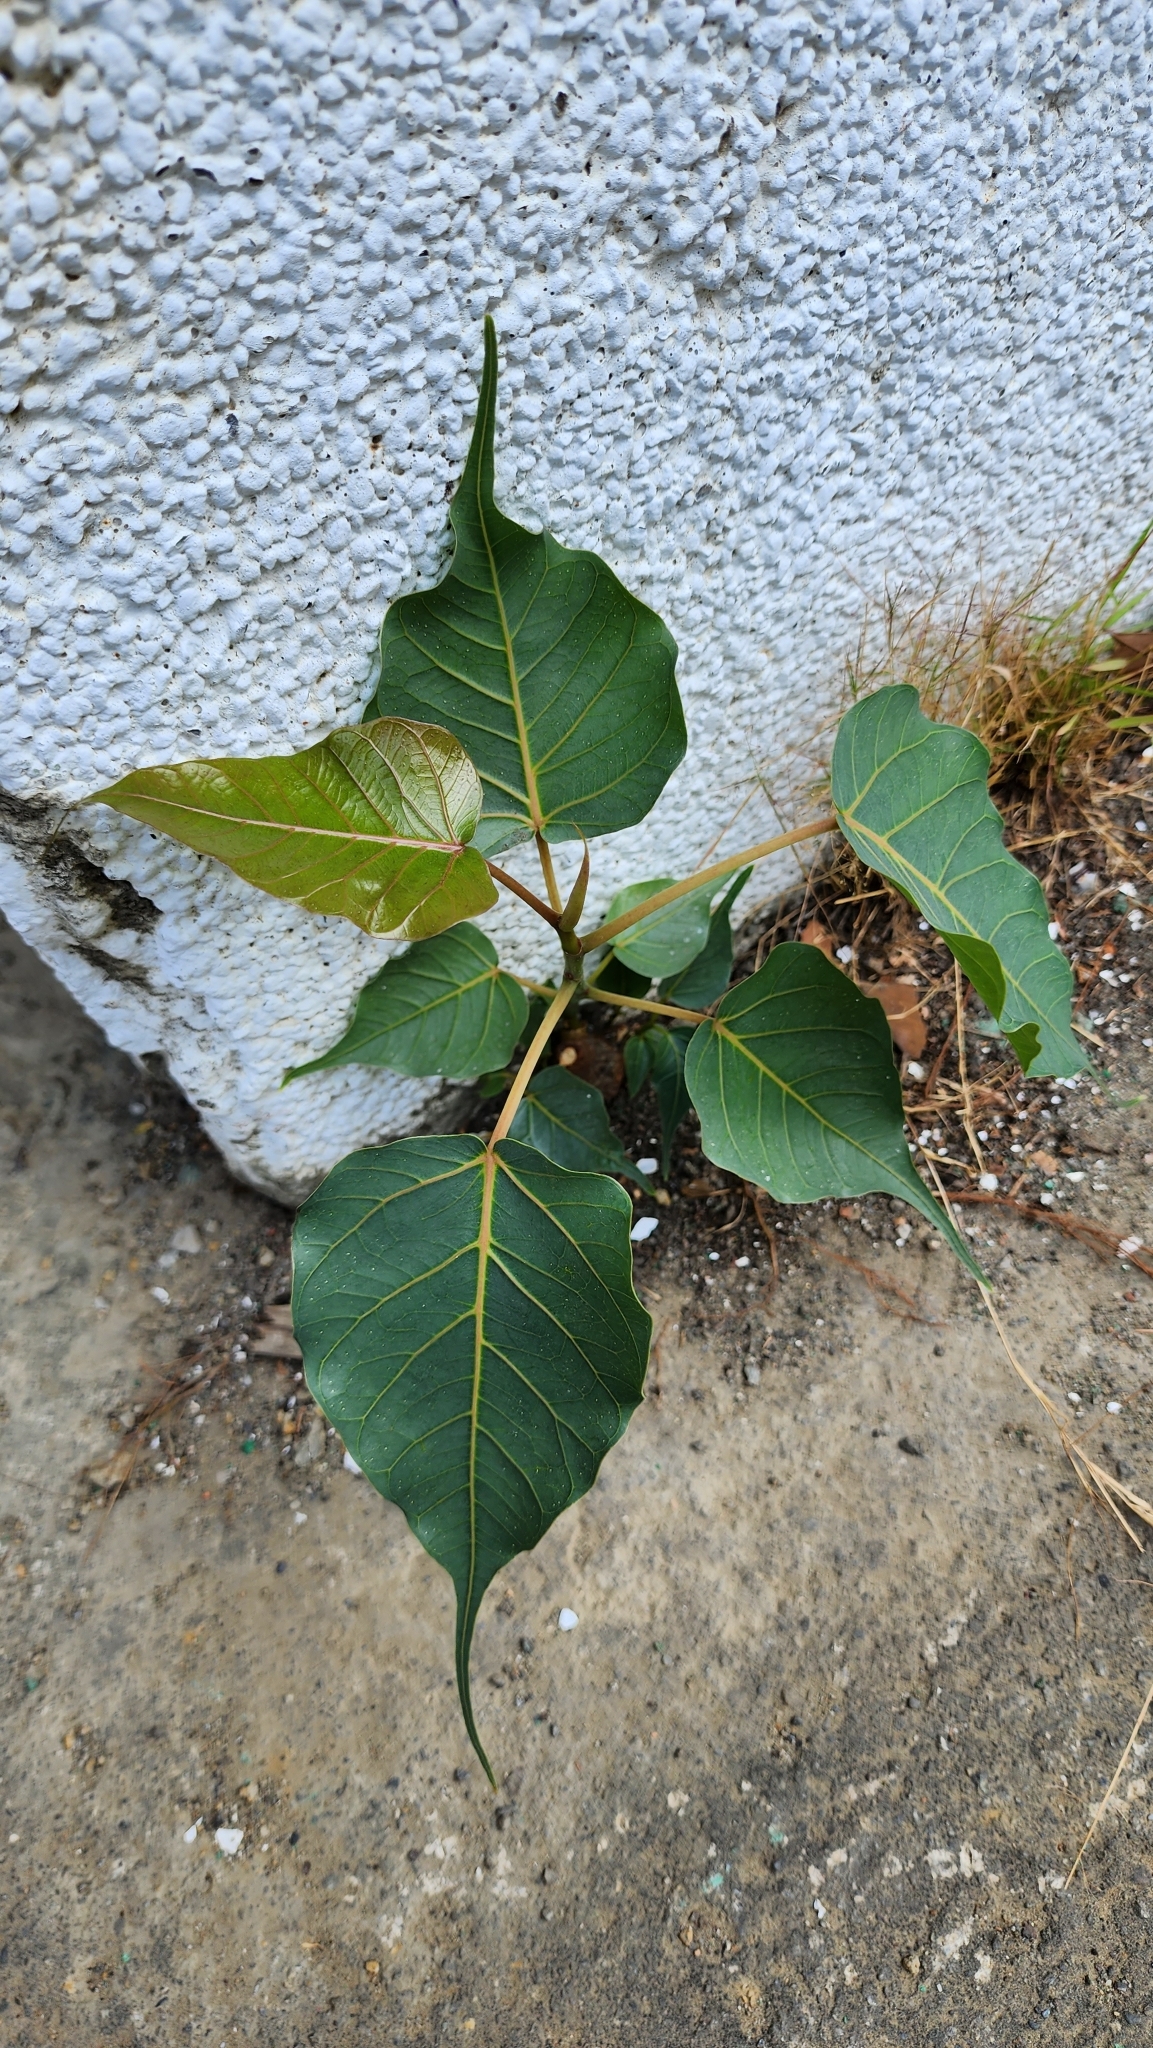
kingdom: Plantae
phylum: Tracheophyta
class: Magnoliopsida
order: Rosales
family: Moraceae
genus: Ficus
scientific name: Ficus religiosa
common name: Bodhi tree
